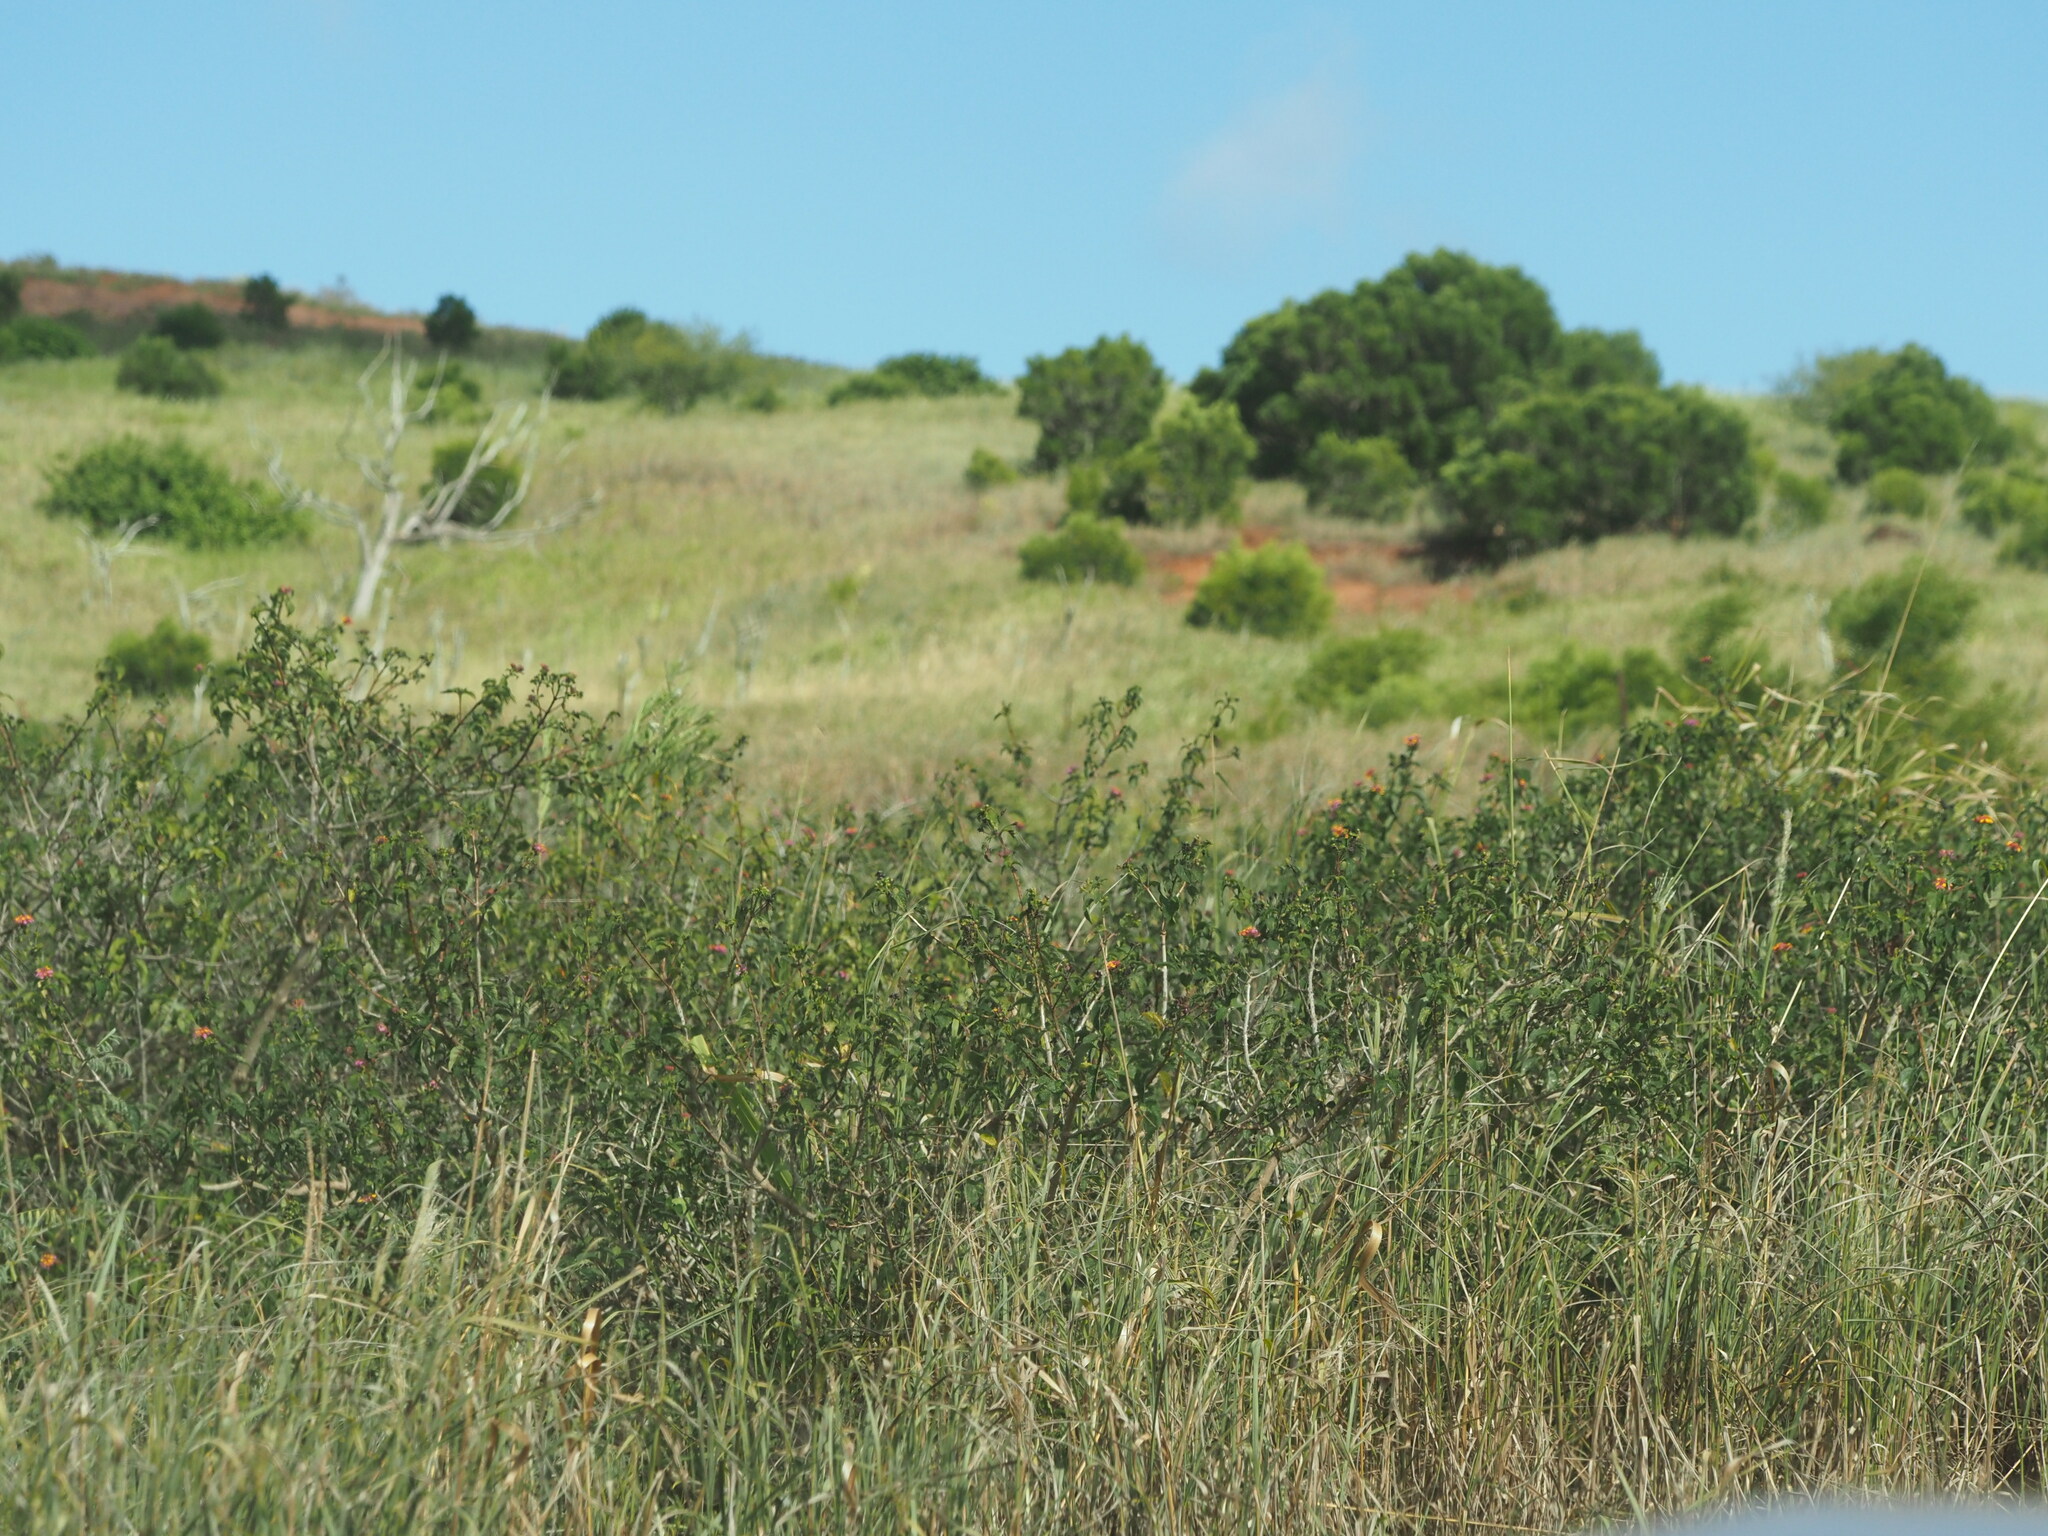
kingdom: Plantae
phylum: Tracheophyta
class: Magnoliopsida
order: Lamiales
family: Verbenaceae
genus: Lantana
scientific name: Lantana camara
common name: Lantana
